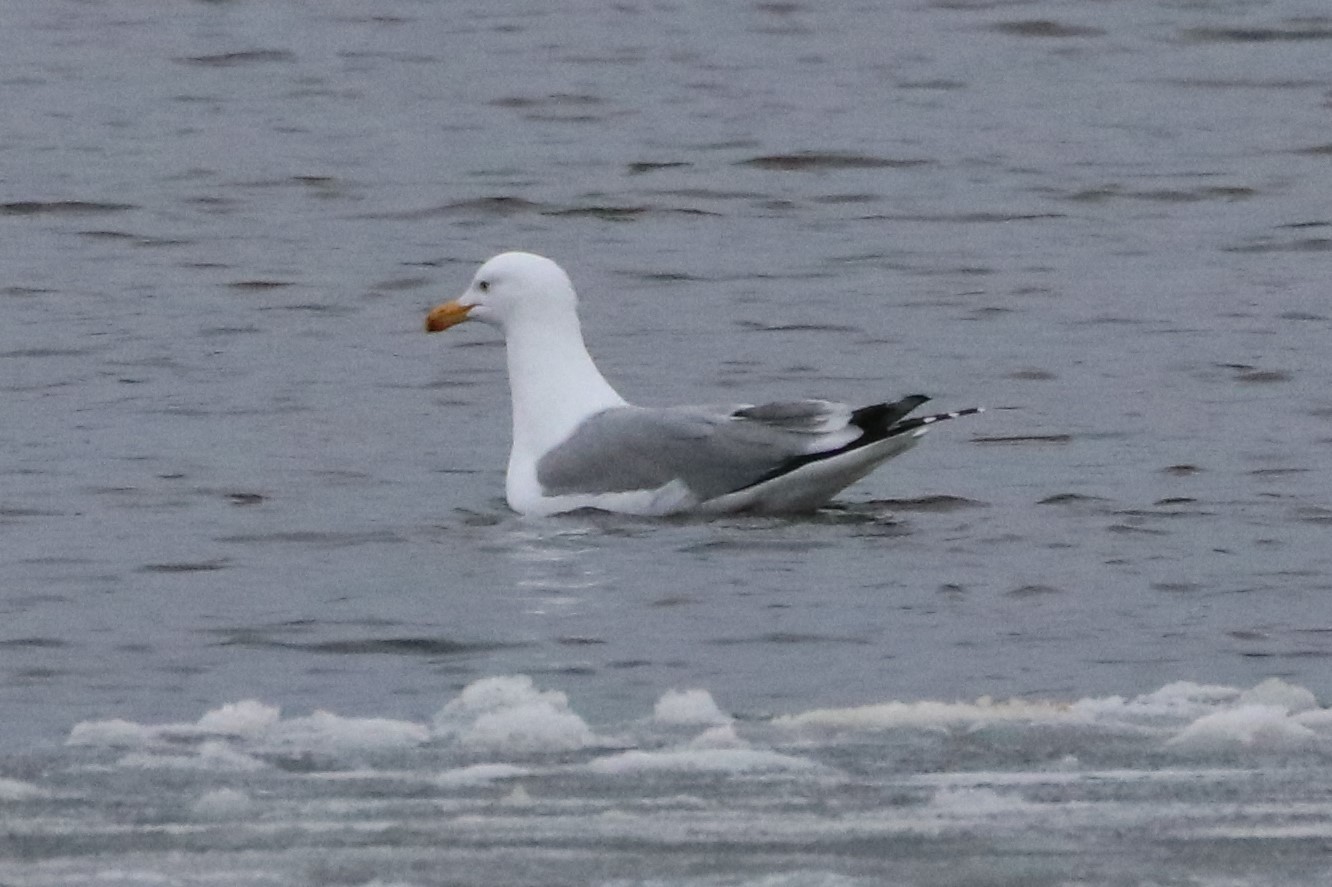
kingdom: Animalia
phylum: Chordata
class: Aves
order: Charadriiformes
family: Laridae
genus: Larus
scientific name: Larus argentatus
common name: Herring gull
